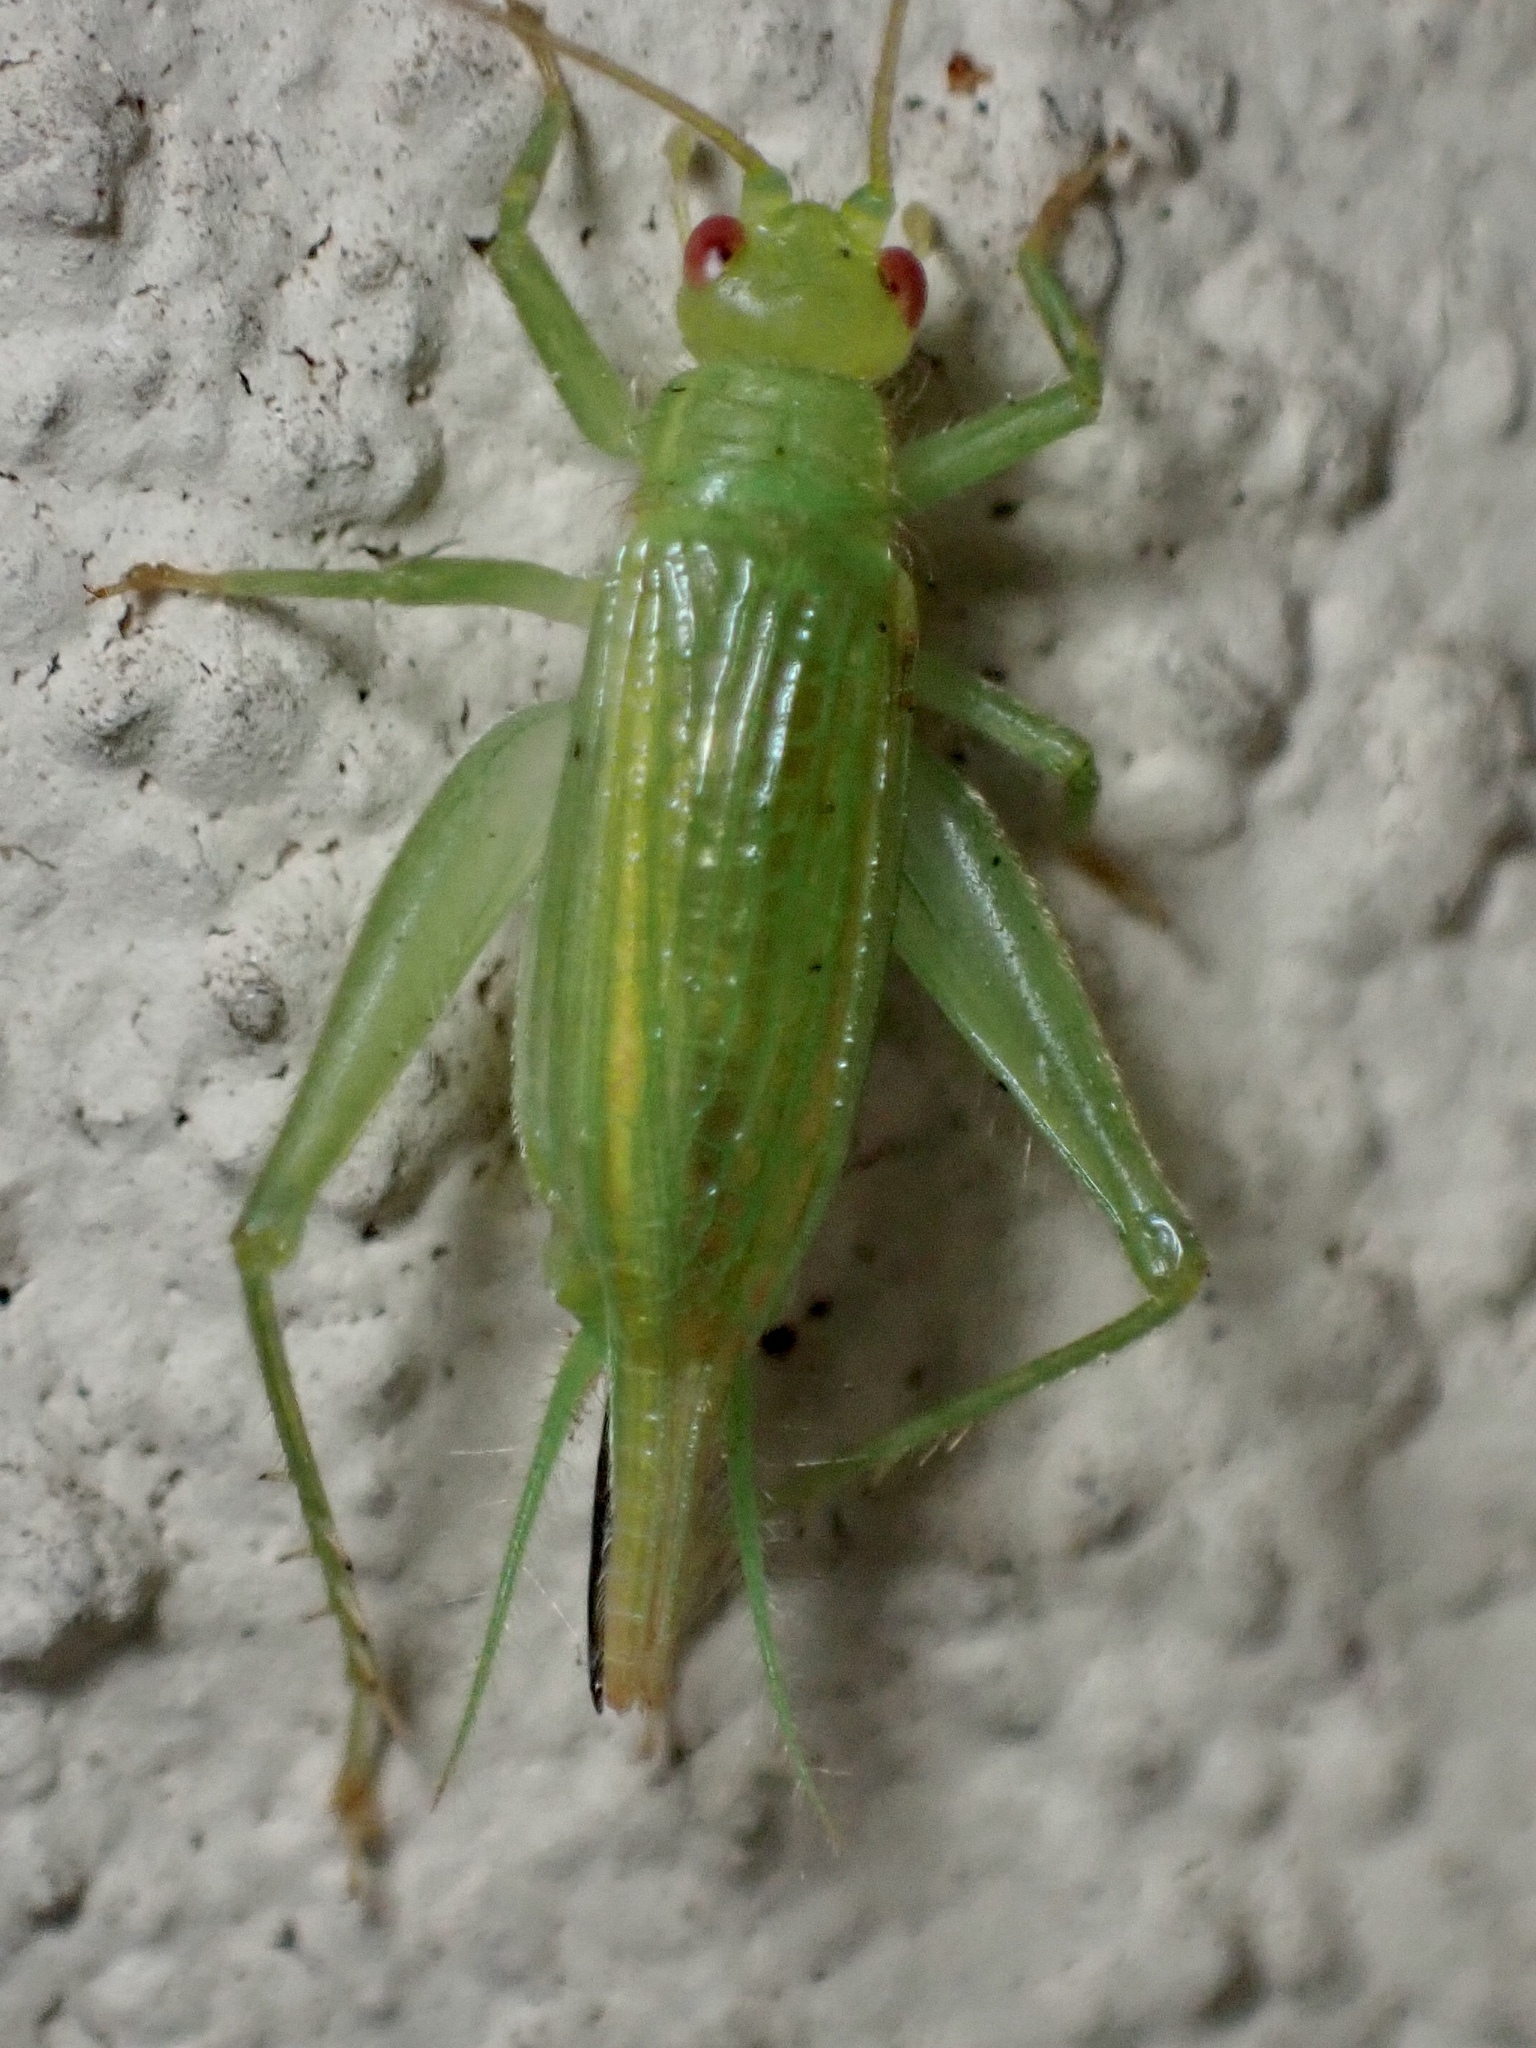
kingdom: Animalia
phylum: Arthropoda
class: Insecta
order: Orthoptera
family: Trigonidiidae
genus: Cyrtoxipha
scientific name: Cyrtoxipha columbiana
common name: Columbian trig
